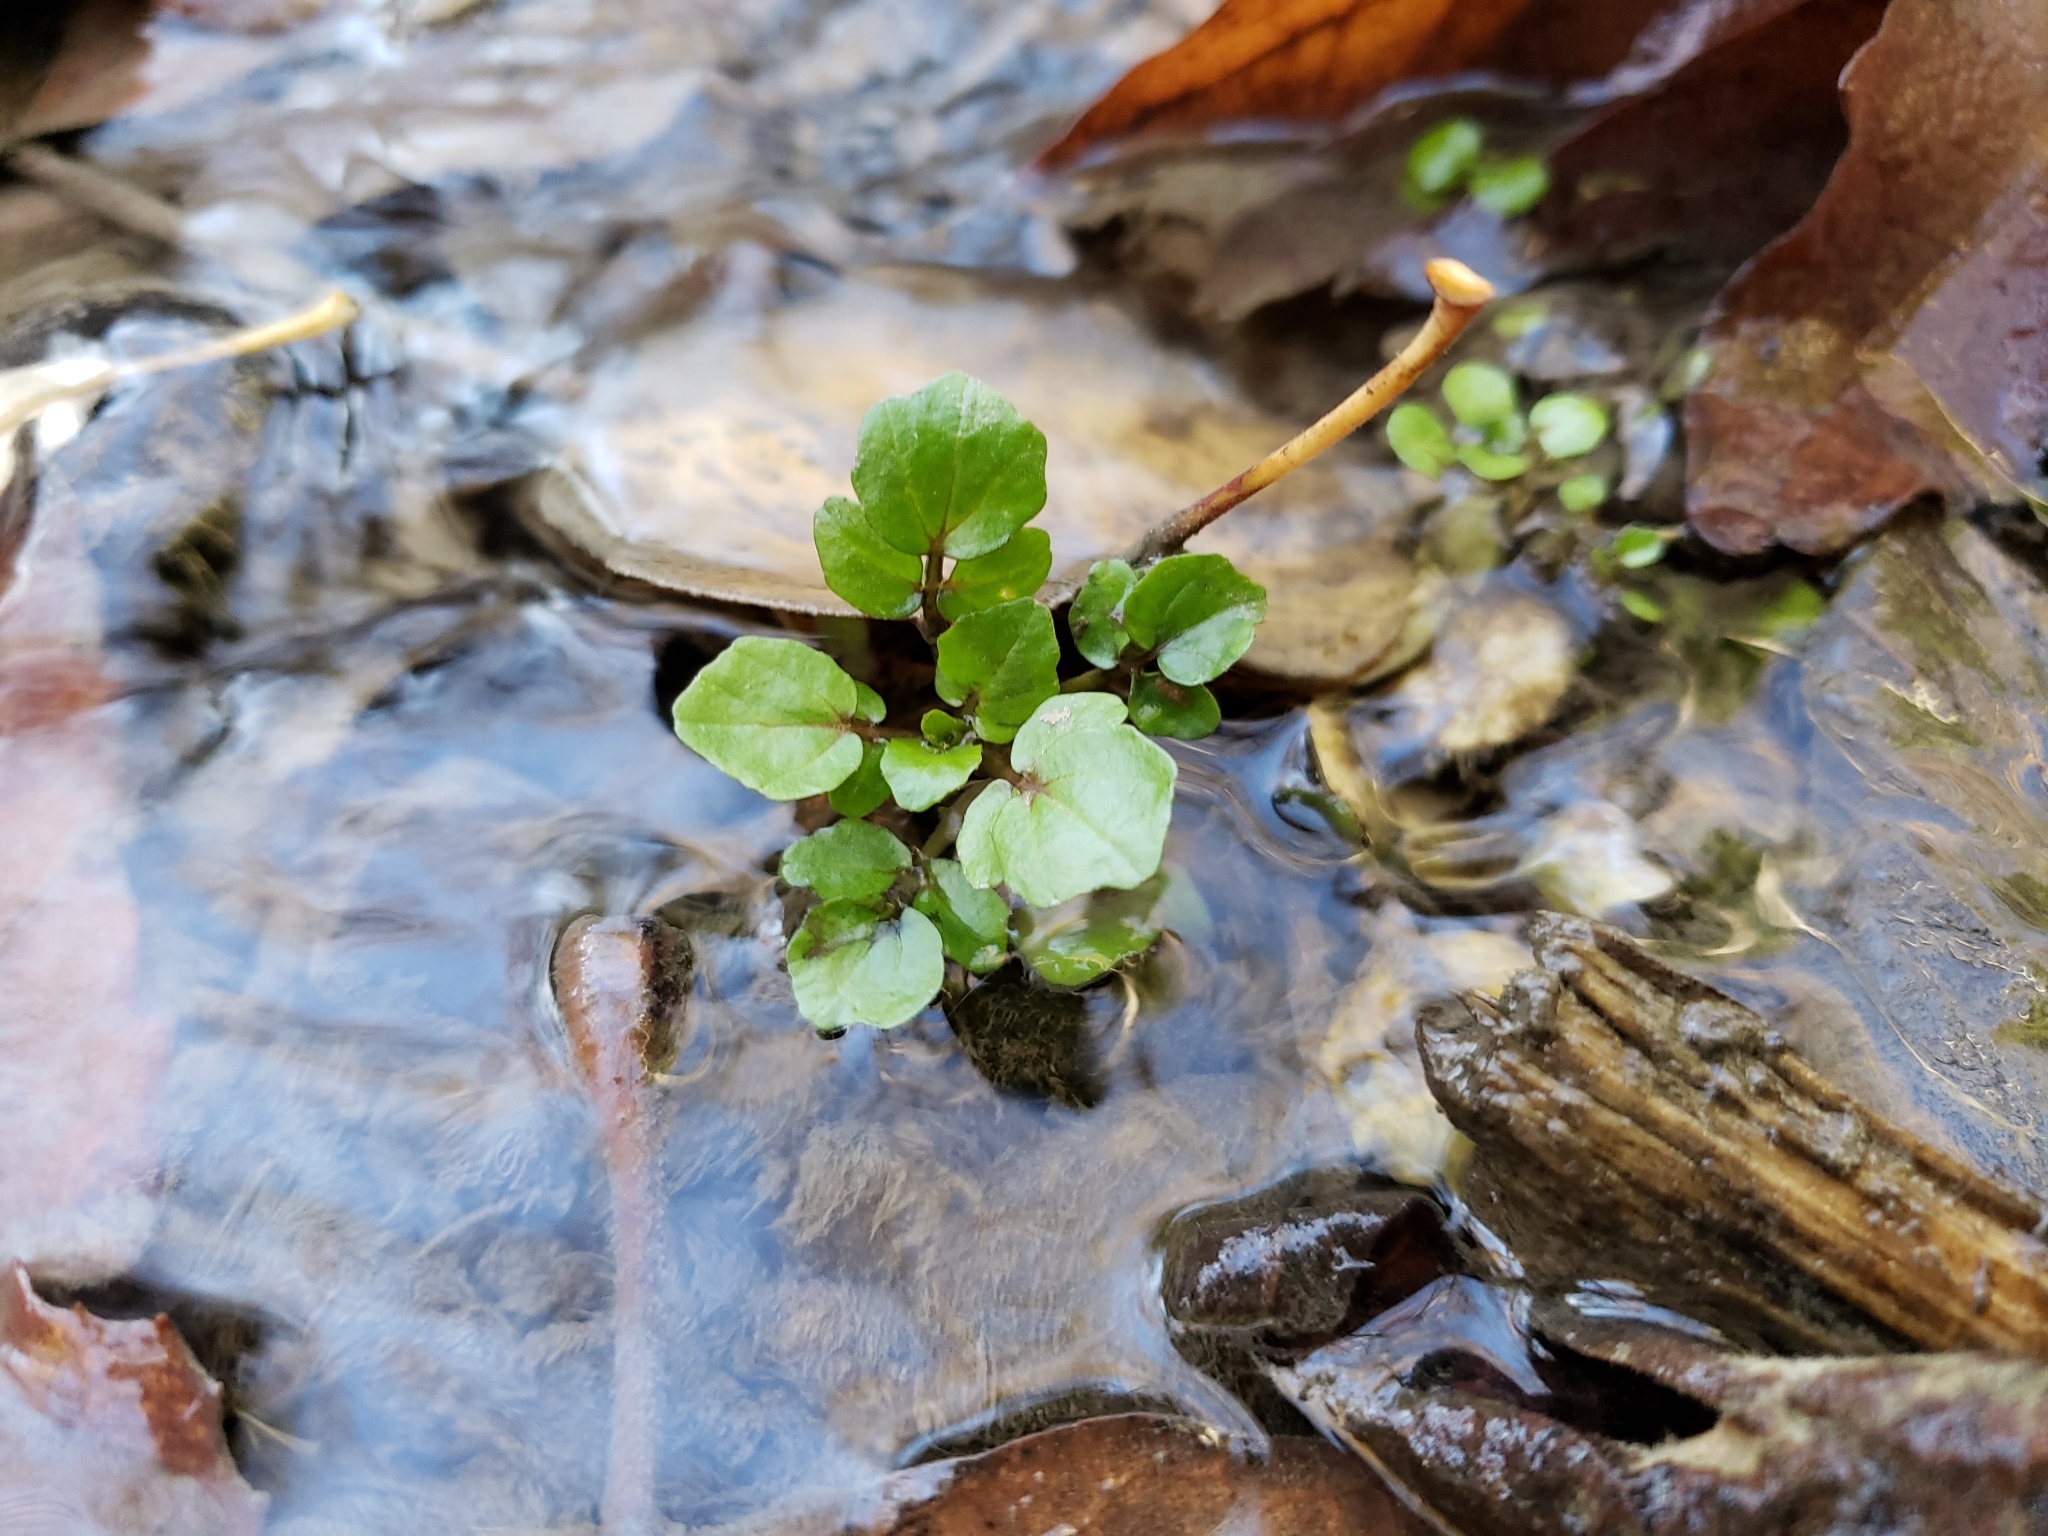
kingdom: Plantae
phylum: Tracheophyta
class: Magnoliopsida
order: Brassicales
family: Brassicaceae
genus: Nasturtium
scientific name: Nasturtium officinale
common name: Watercress
